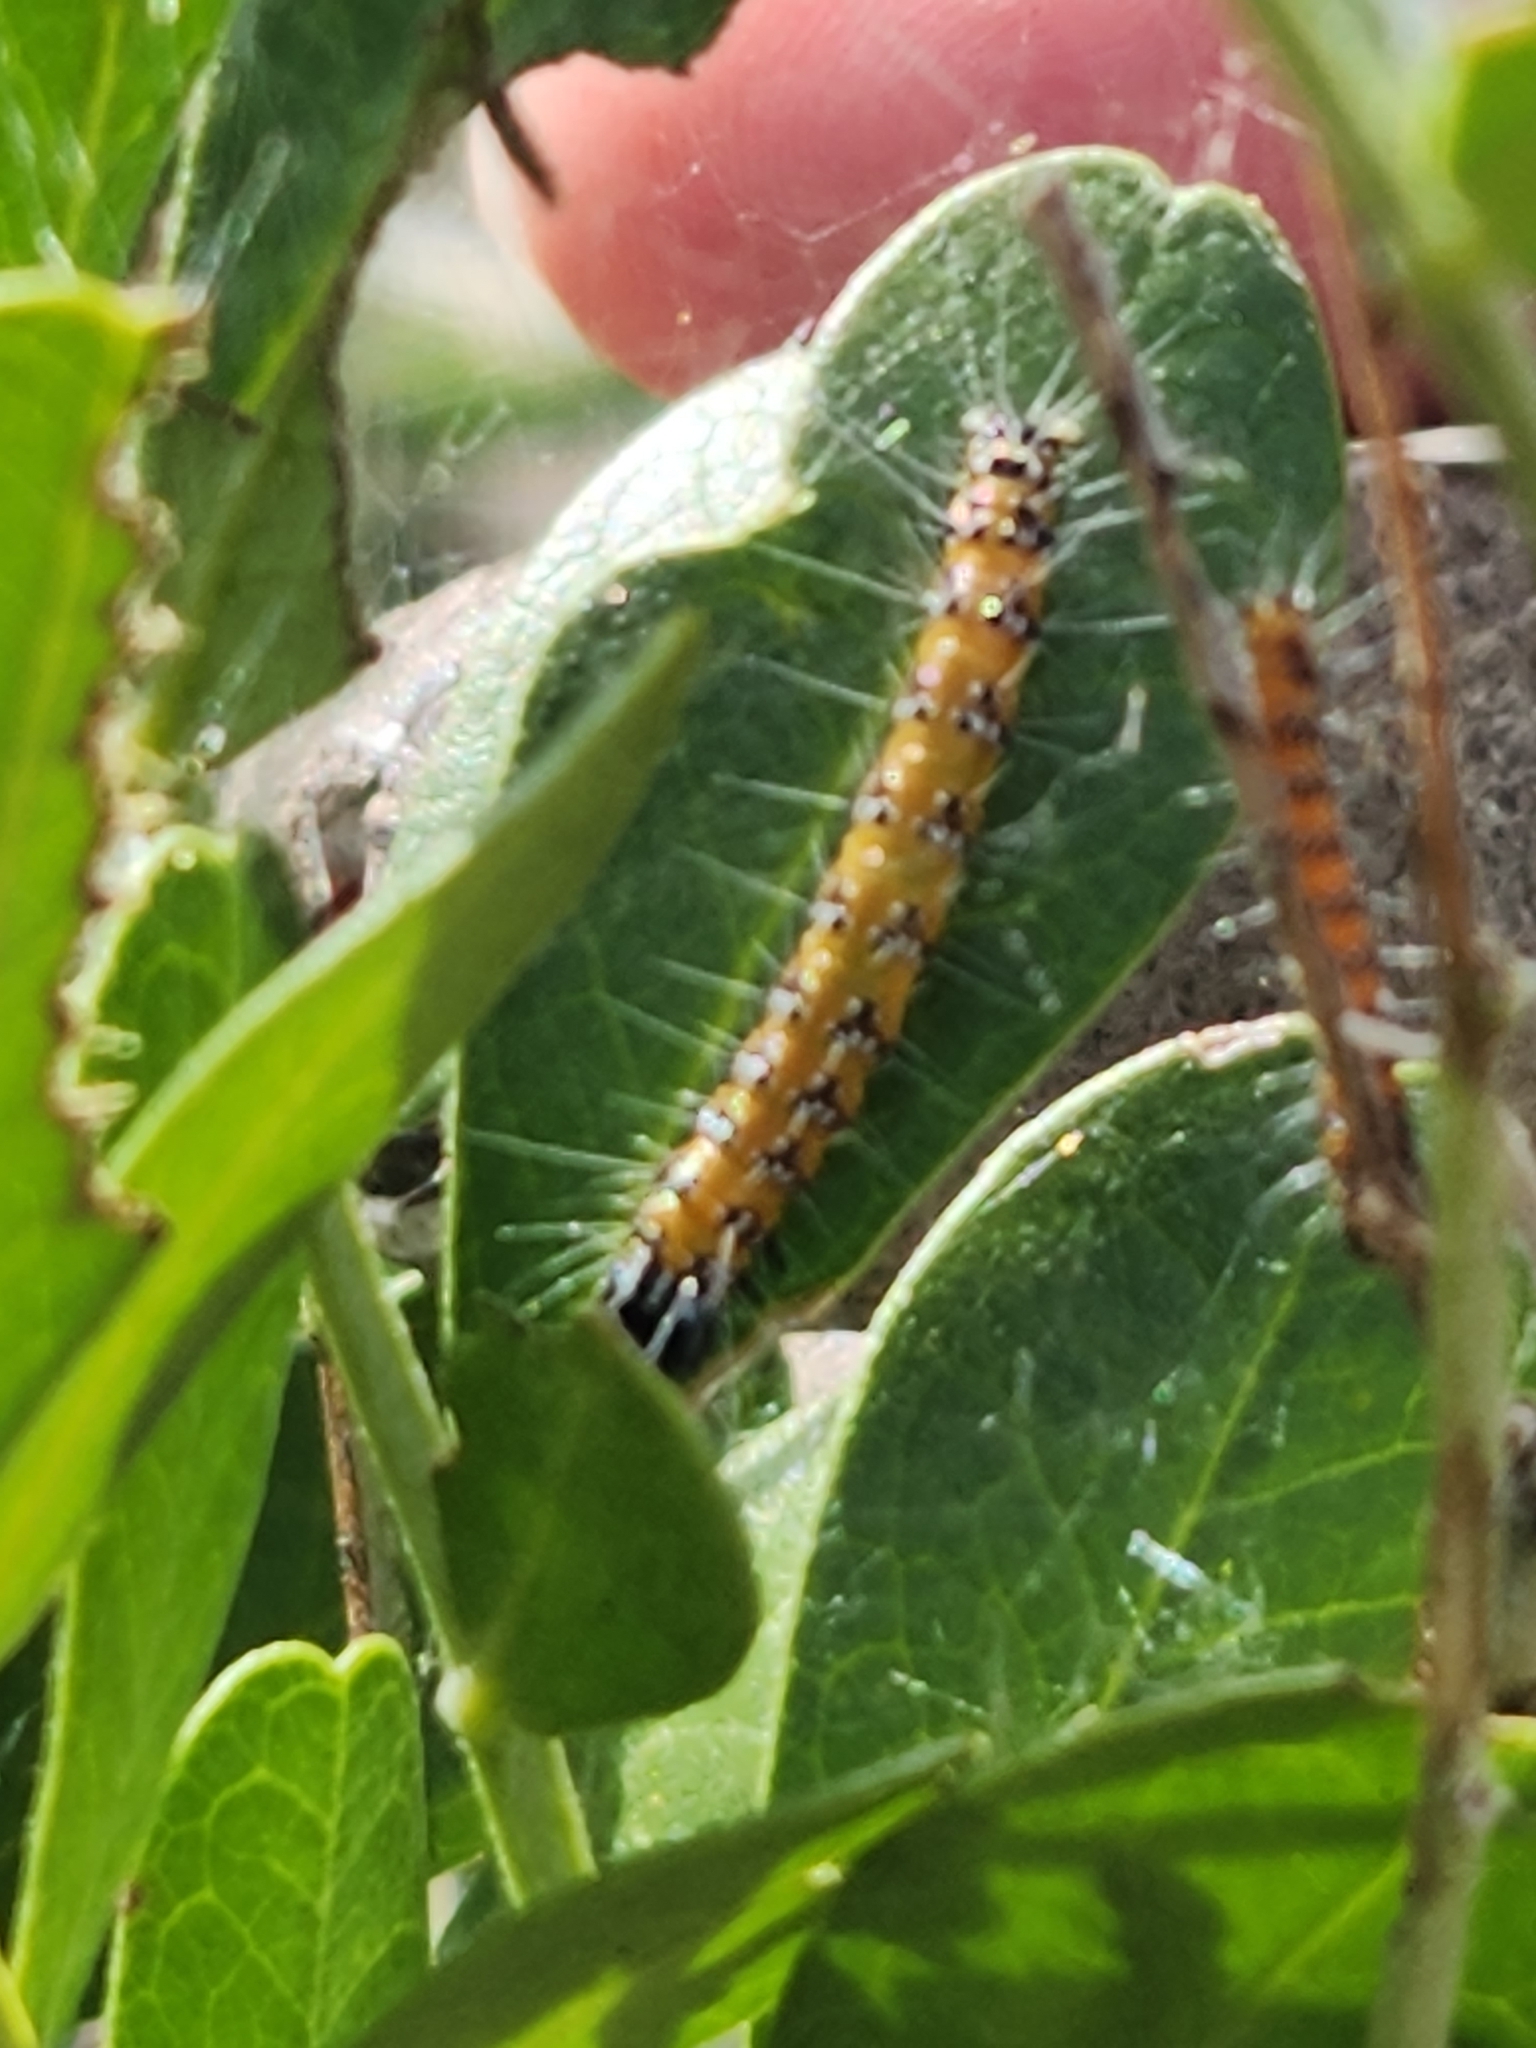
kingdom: Animalia
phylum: Arthropoda
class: Insecta
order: Lepidoptera
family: Crambidae
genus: Uresiphita
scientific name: Uresiphita reversalis
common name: Genista broom moth
